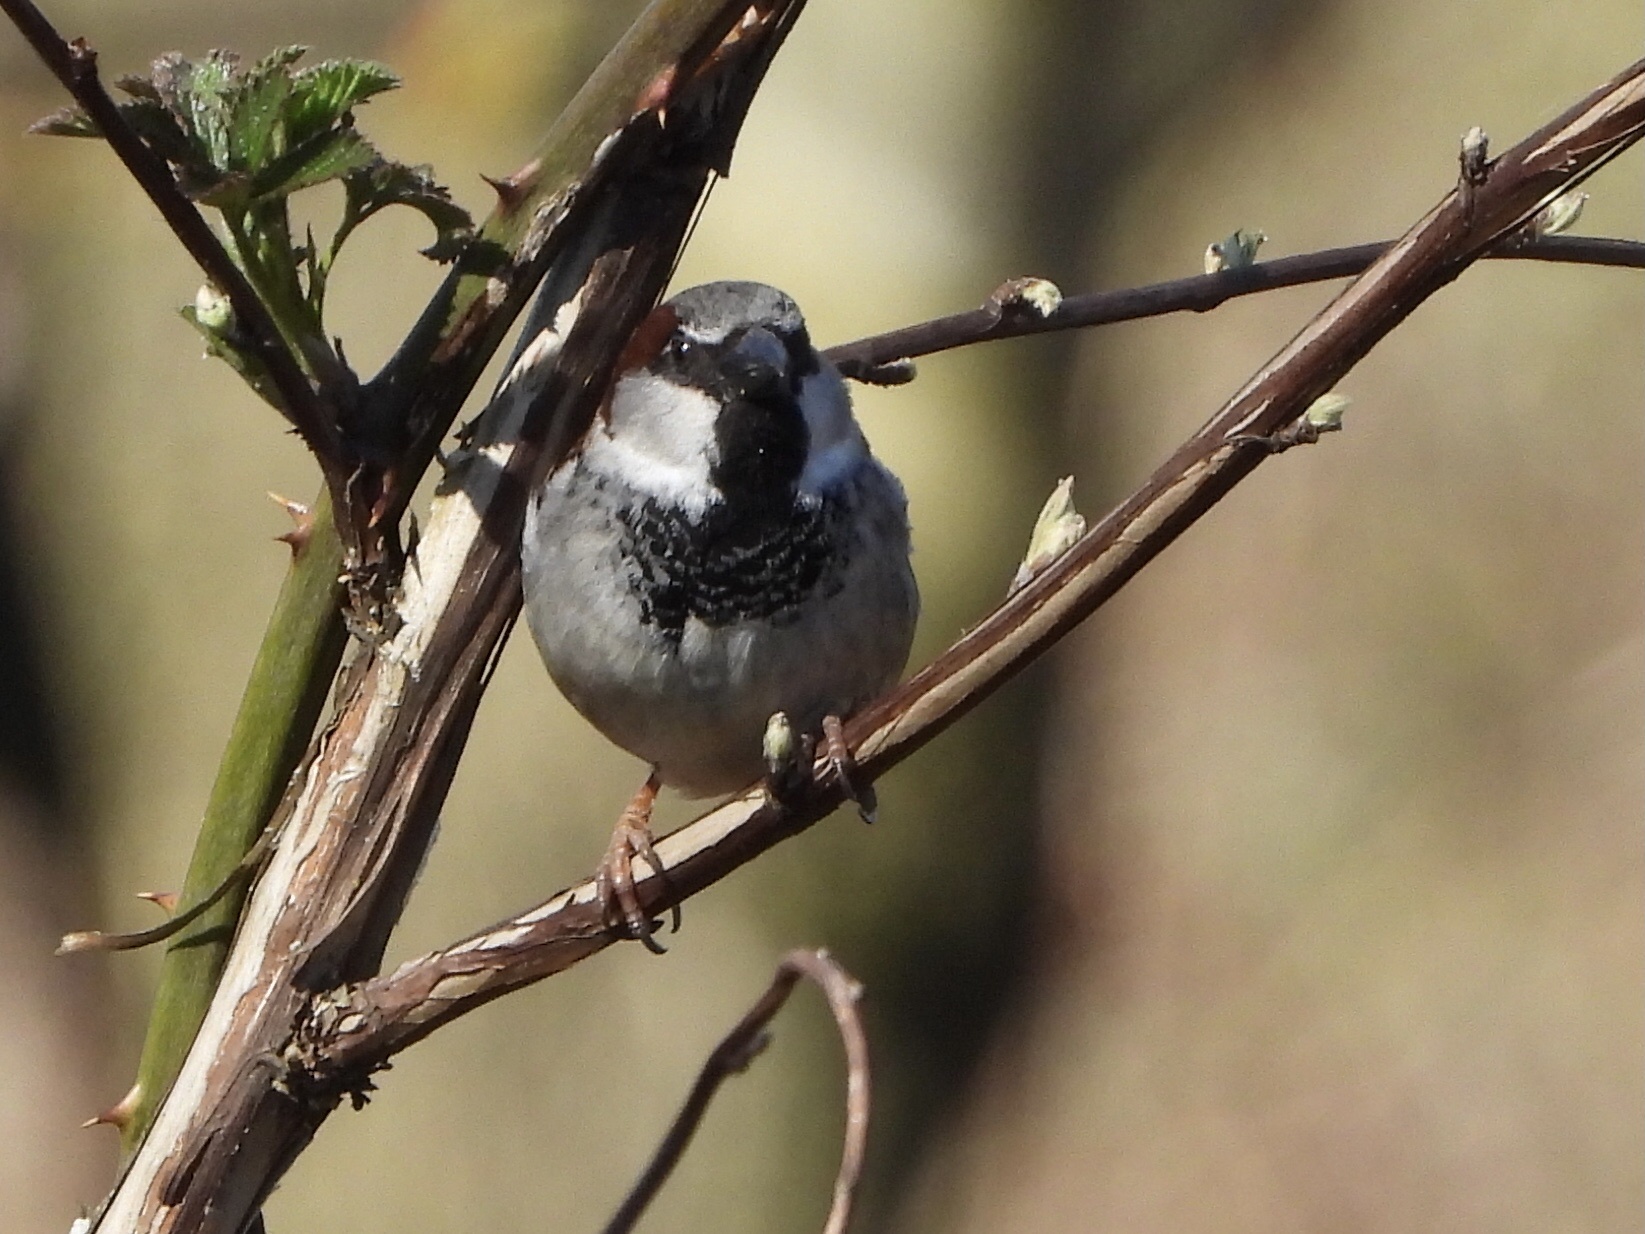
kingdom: Animalia
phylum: Chordata
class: Aves
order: Passeriformes
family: Passeridae
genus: Passer
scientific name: Passer domesticus
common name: House sparrow
